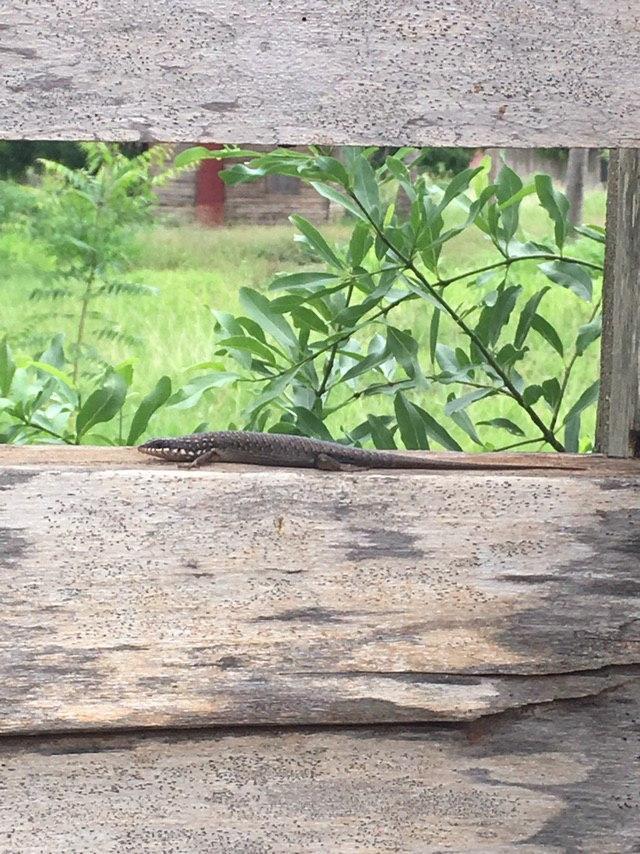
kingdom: Animalia
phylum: Chordata
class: Squamata
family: Scincidae
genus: Trachylepis
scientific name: Trachylepis aureopunctata
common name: Gold-spotted mabuya
